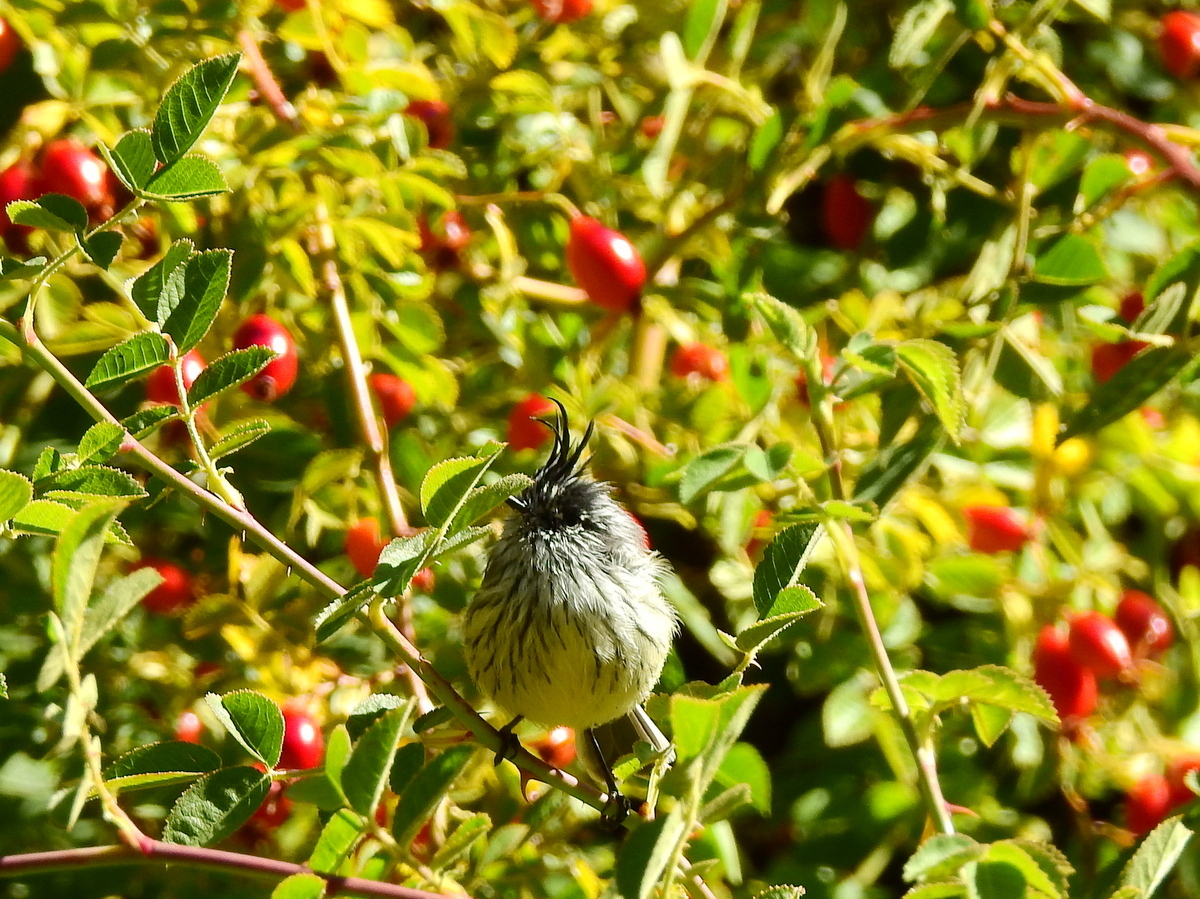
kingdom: Animalia
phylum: Chordata
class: Aves
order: Passeriformes
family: Tyrannidae
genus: Anairetes
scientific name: Anairetes parulus
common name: Tufted tit-tyrant
